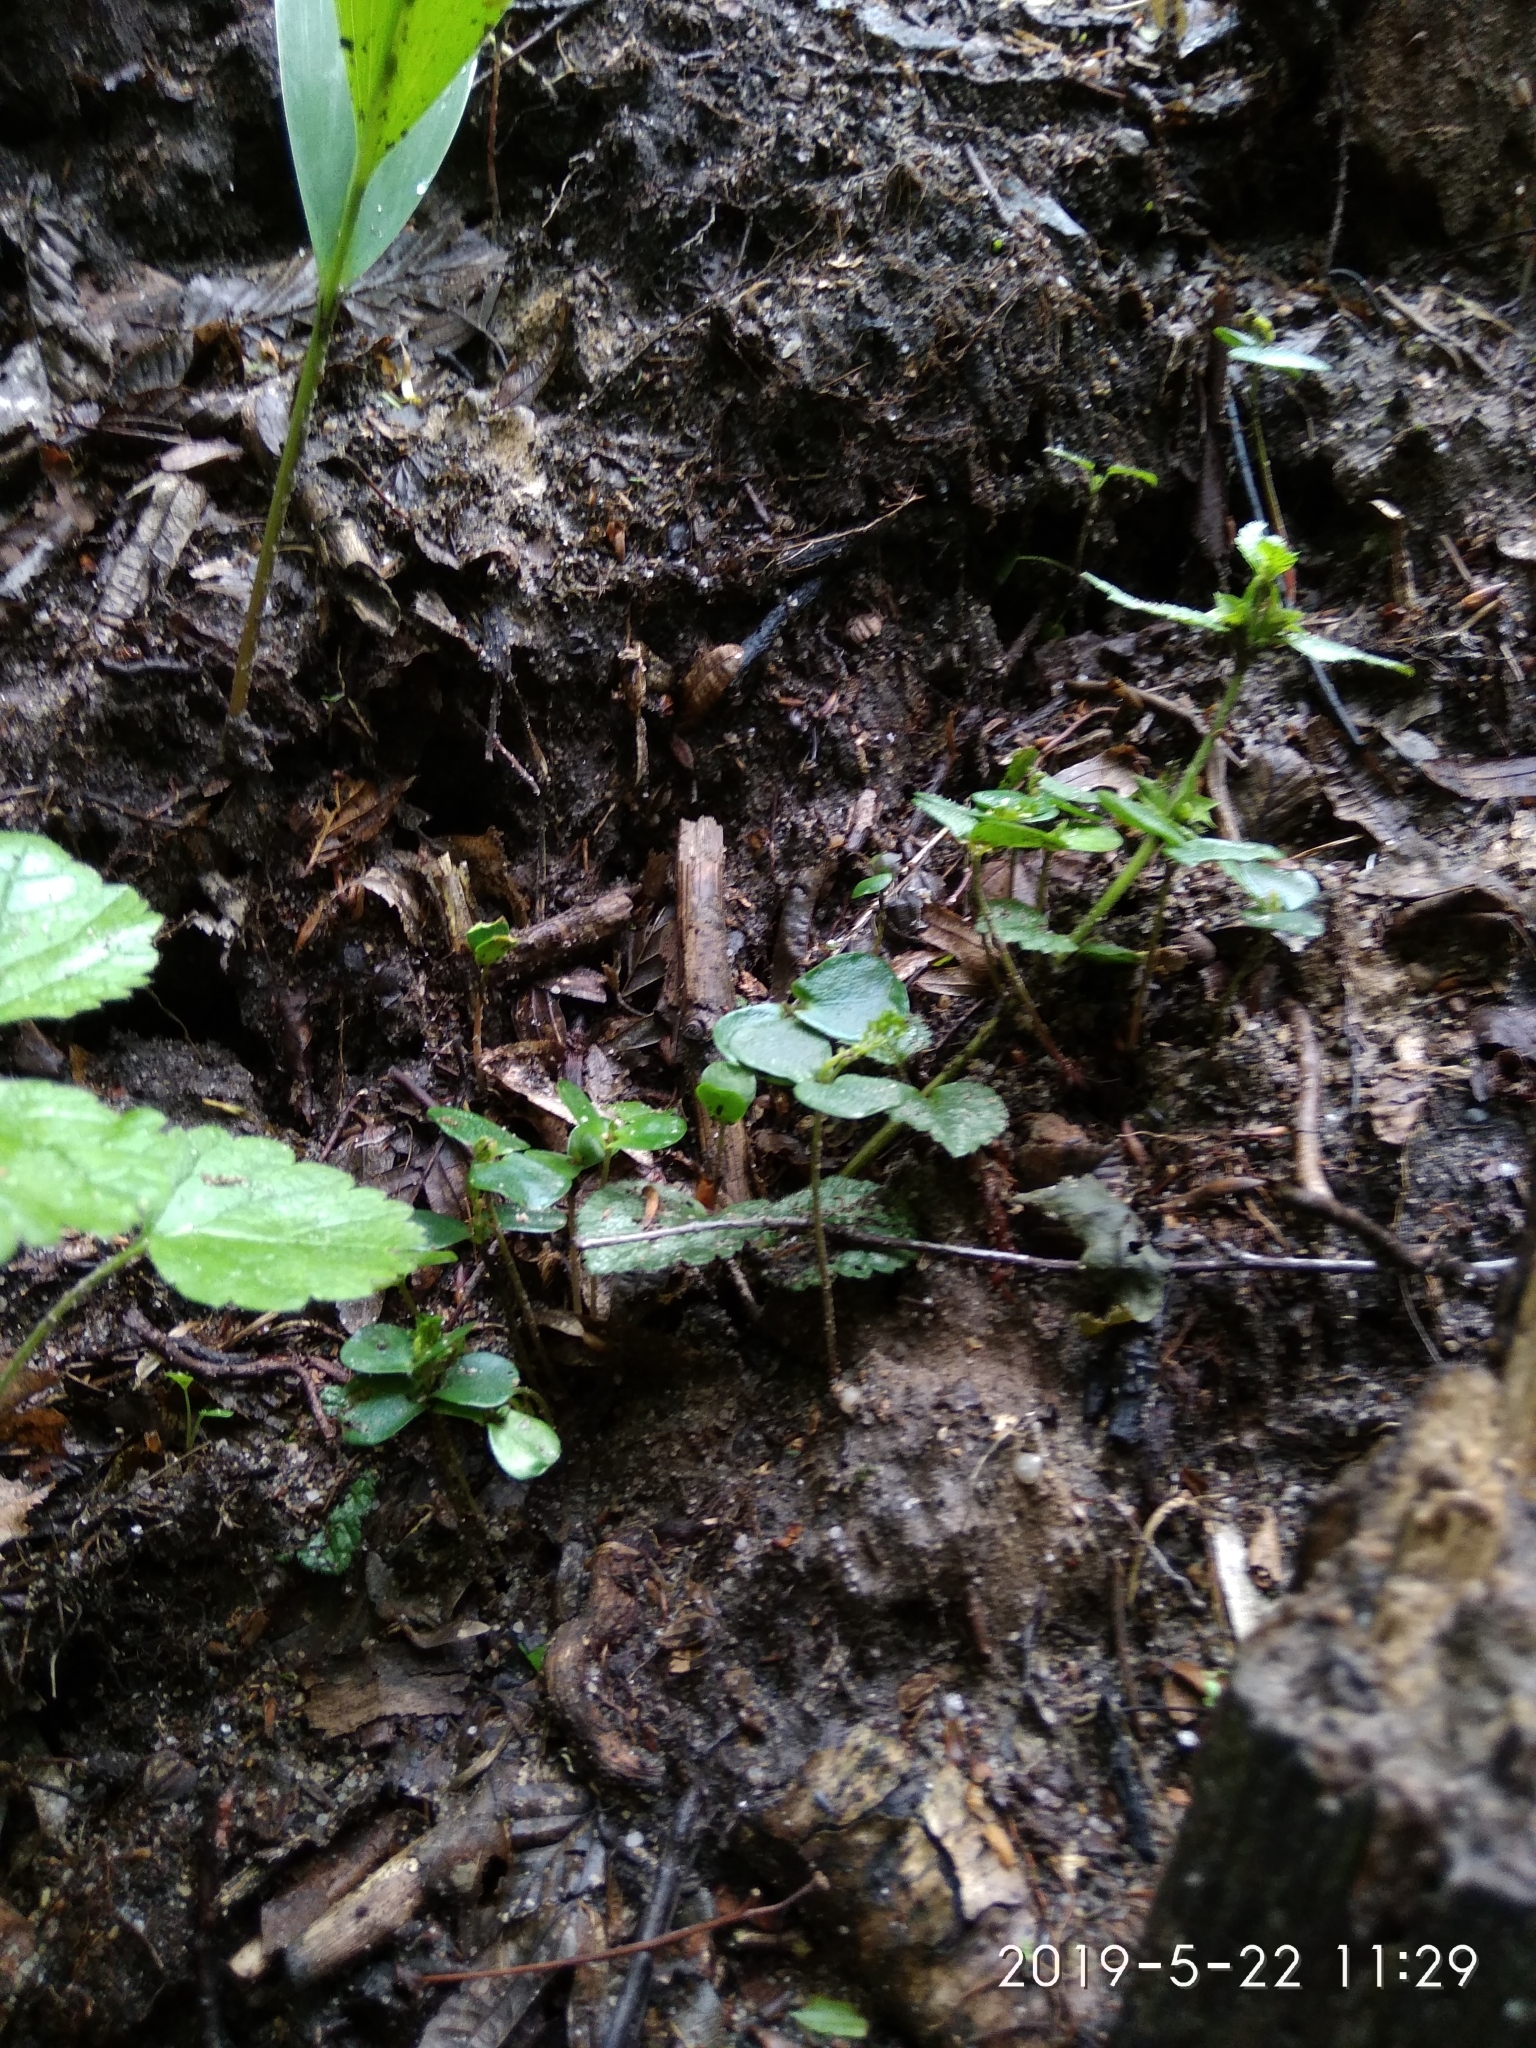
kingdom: Plantae
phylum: Tracheophyta
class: Magnoliopsida
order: Fagales
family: Betulaceae
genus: Carpinus
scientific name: Carpinus betulus
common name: Hornbeam
